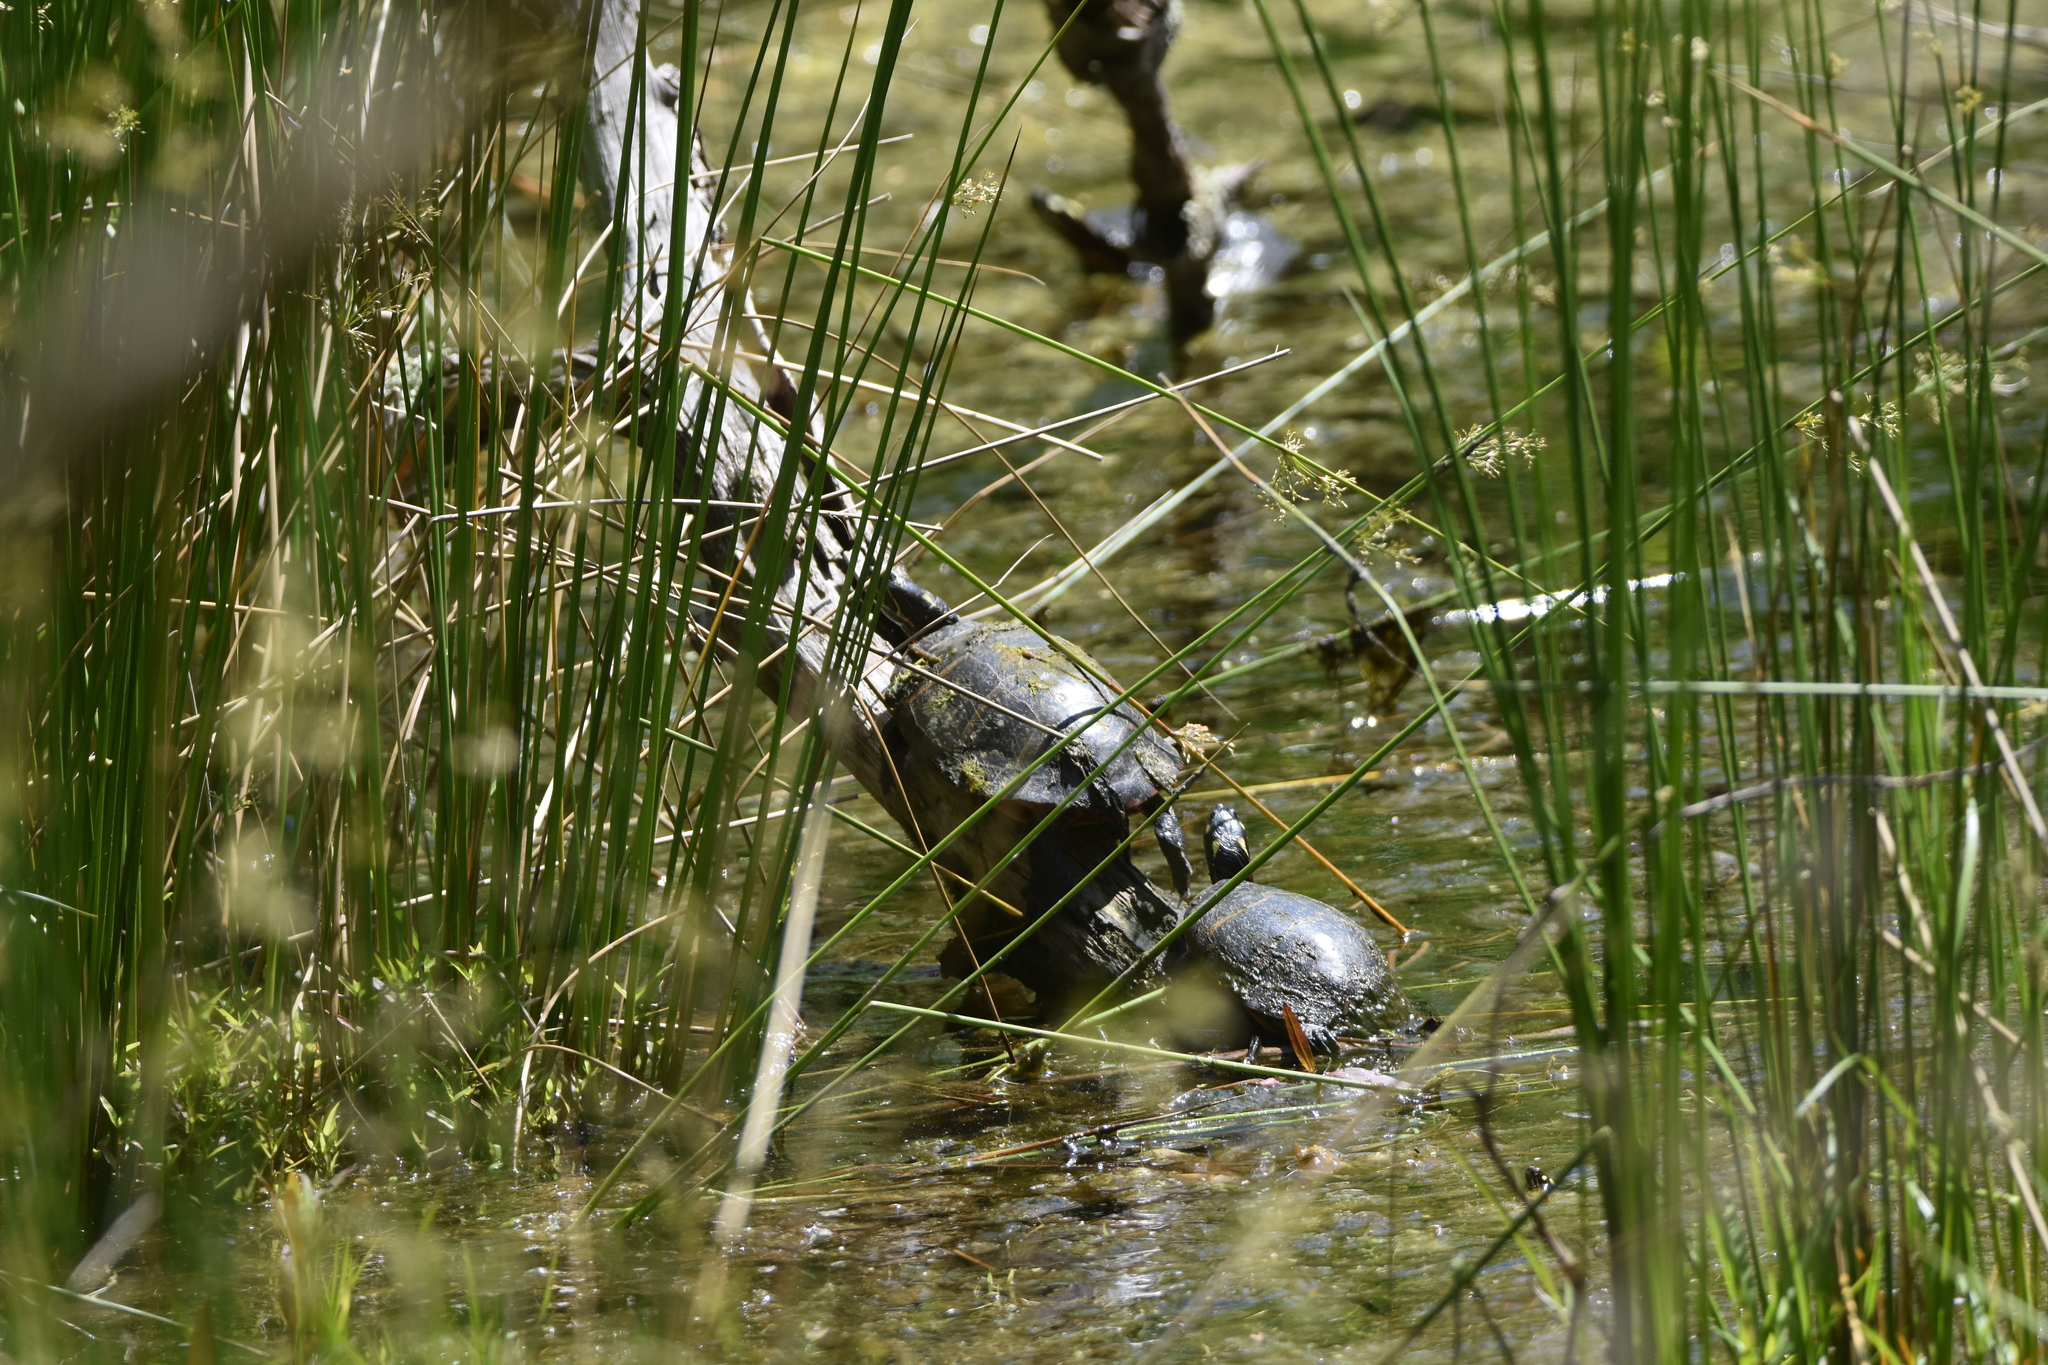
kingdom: Animalia
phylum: Chordata
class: Testudines
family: Emydidae
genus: Chrysemys
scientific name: Chrysemys picta
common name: Painted turtle
